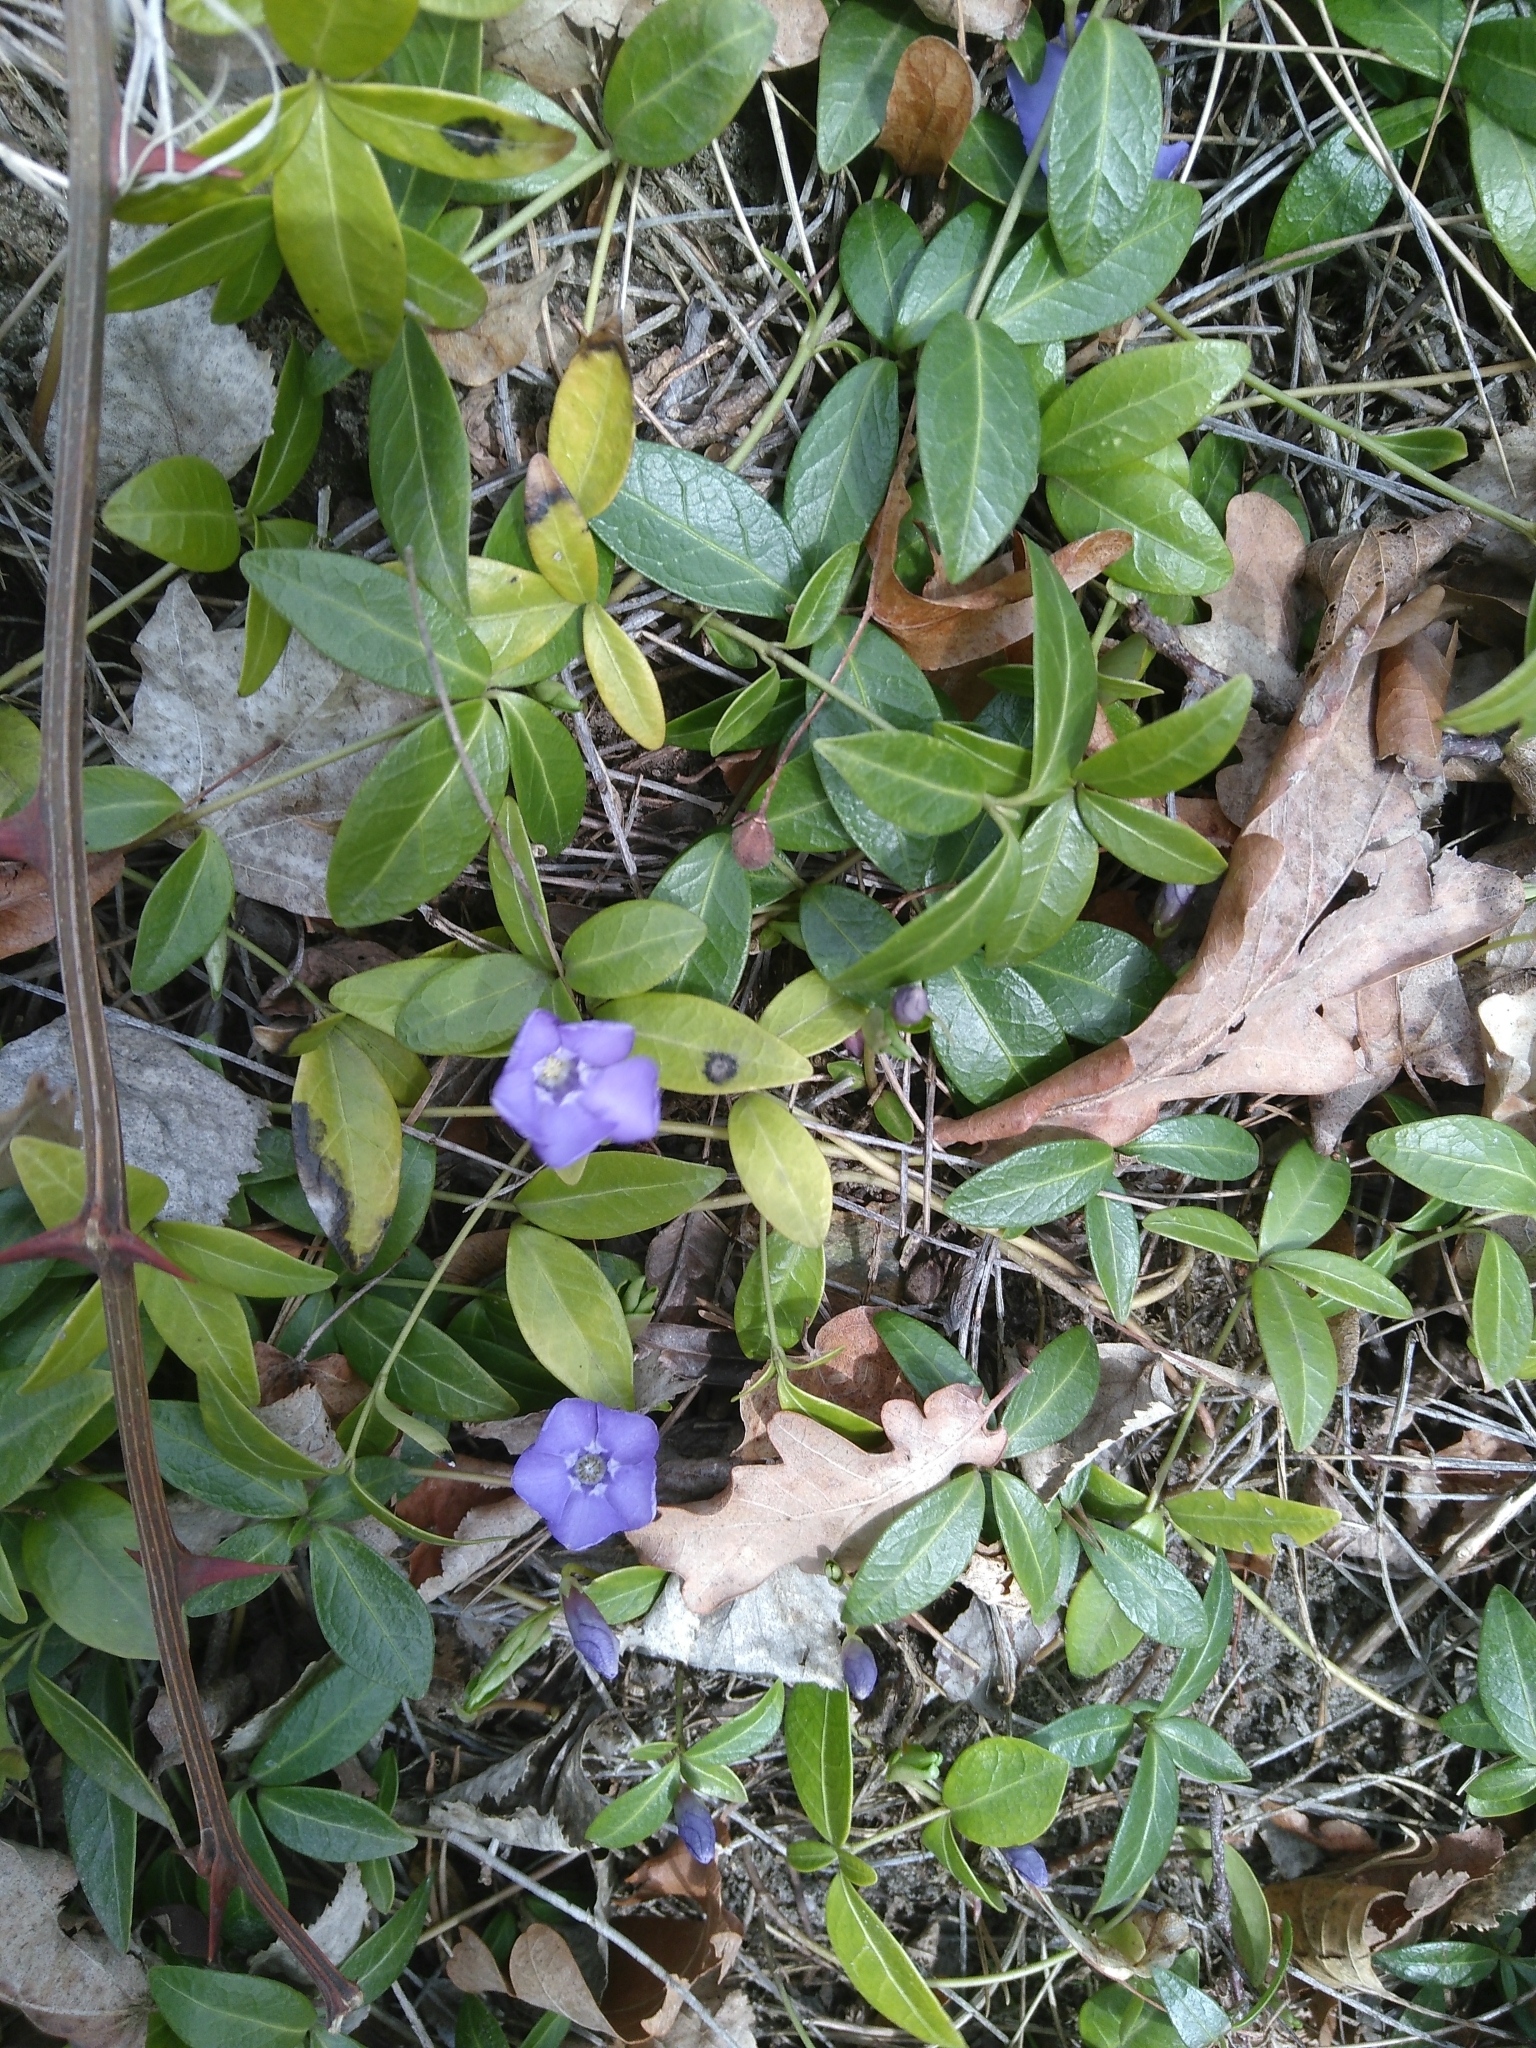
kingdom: Plantae
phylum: Tracheophyta
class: Magnoliopsida
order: Gentianales
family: Apocynaceae
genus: Vinca
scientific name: Vinca minor
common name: Lesser periwinkle
